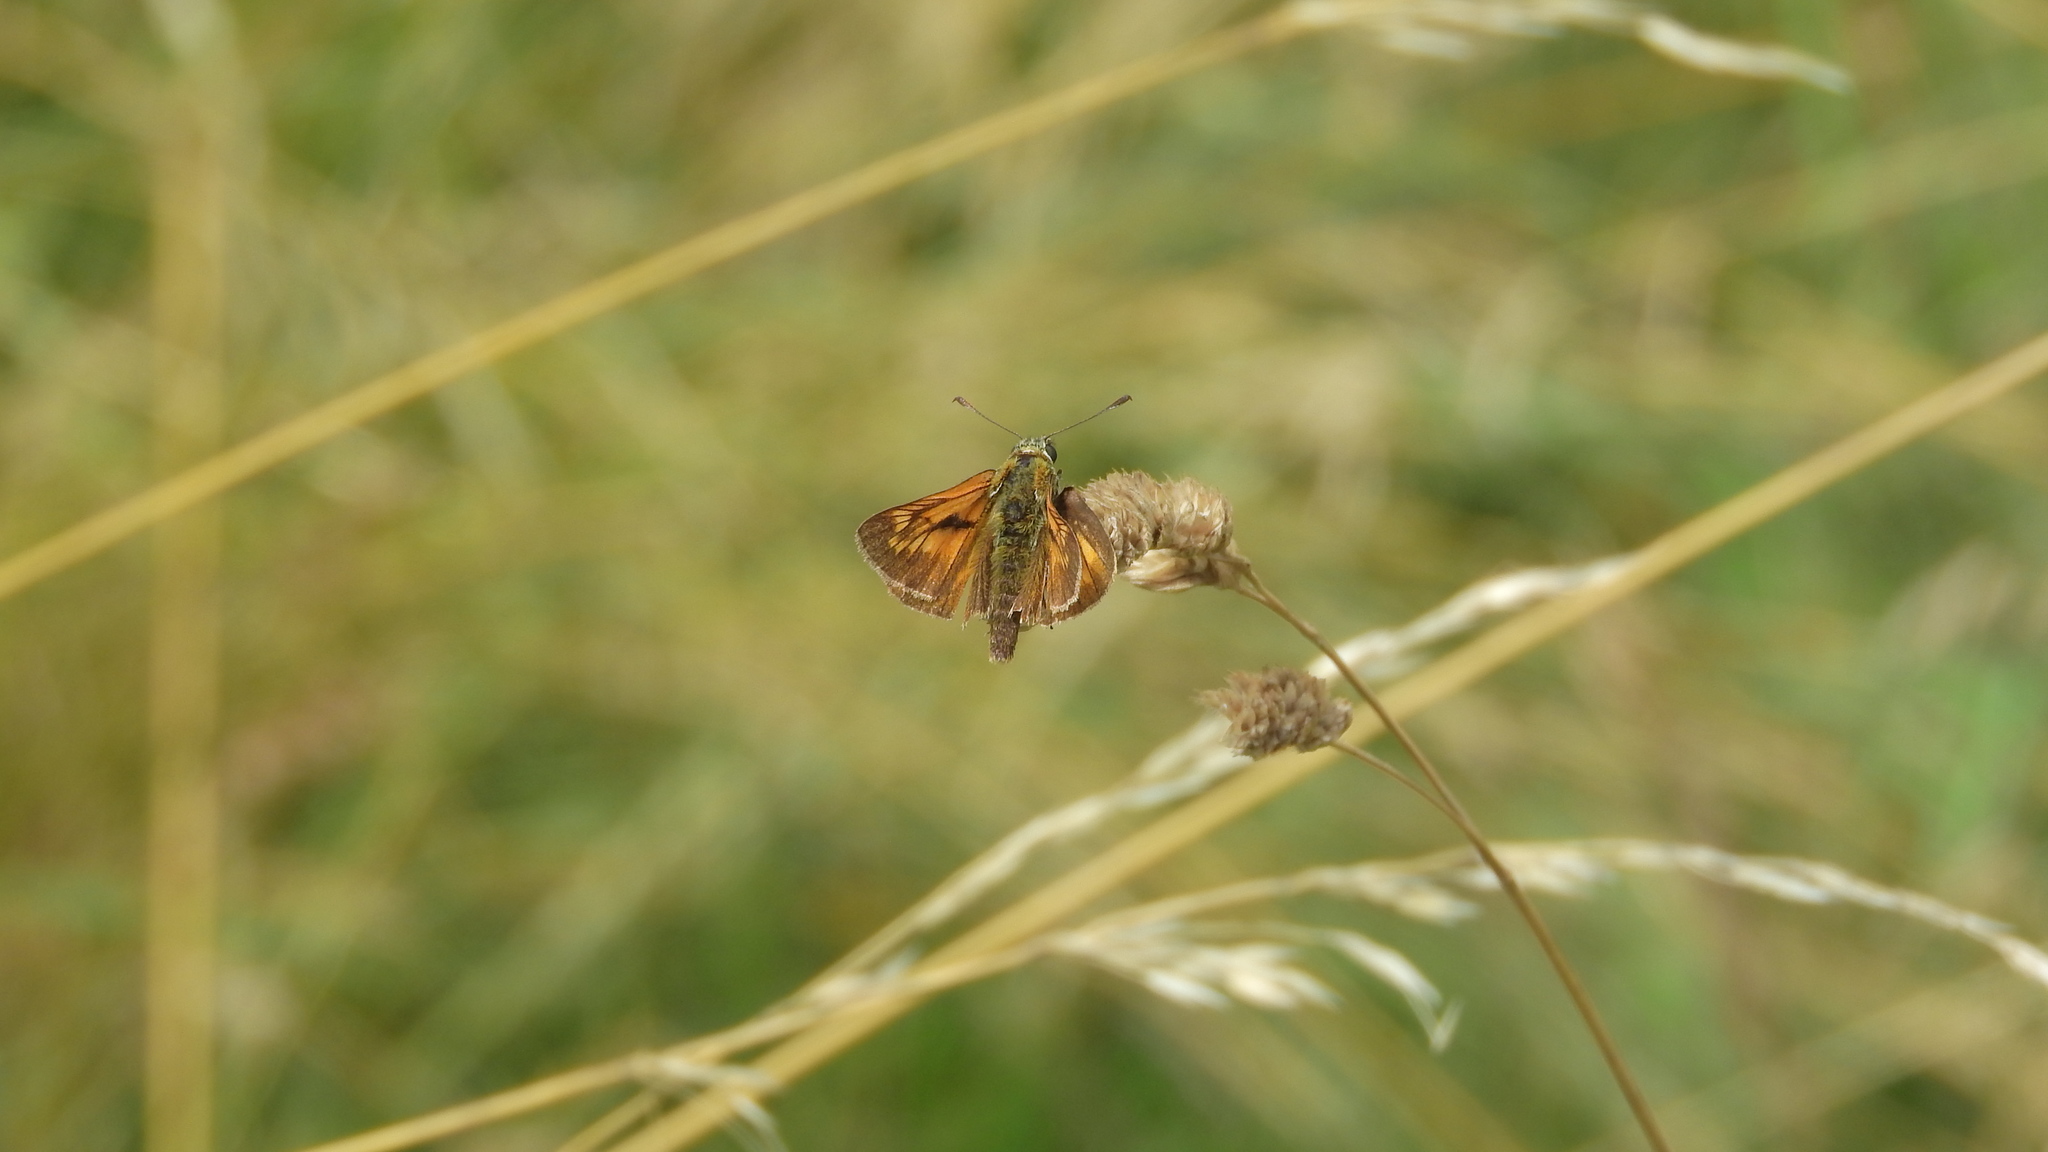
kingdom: Animalia
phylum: Arthropoda
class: Insecta
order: Lepidoptera
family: Hesperiidae
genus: Ochlodes
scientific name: Ochlodes venata
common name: Large skipper
